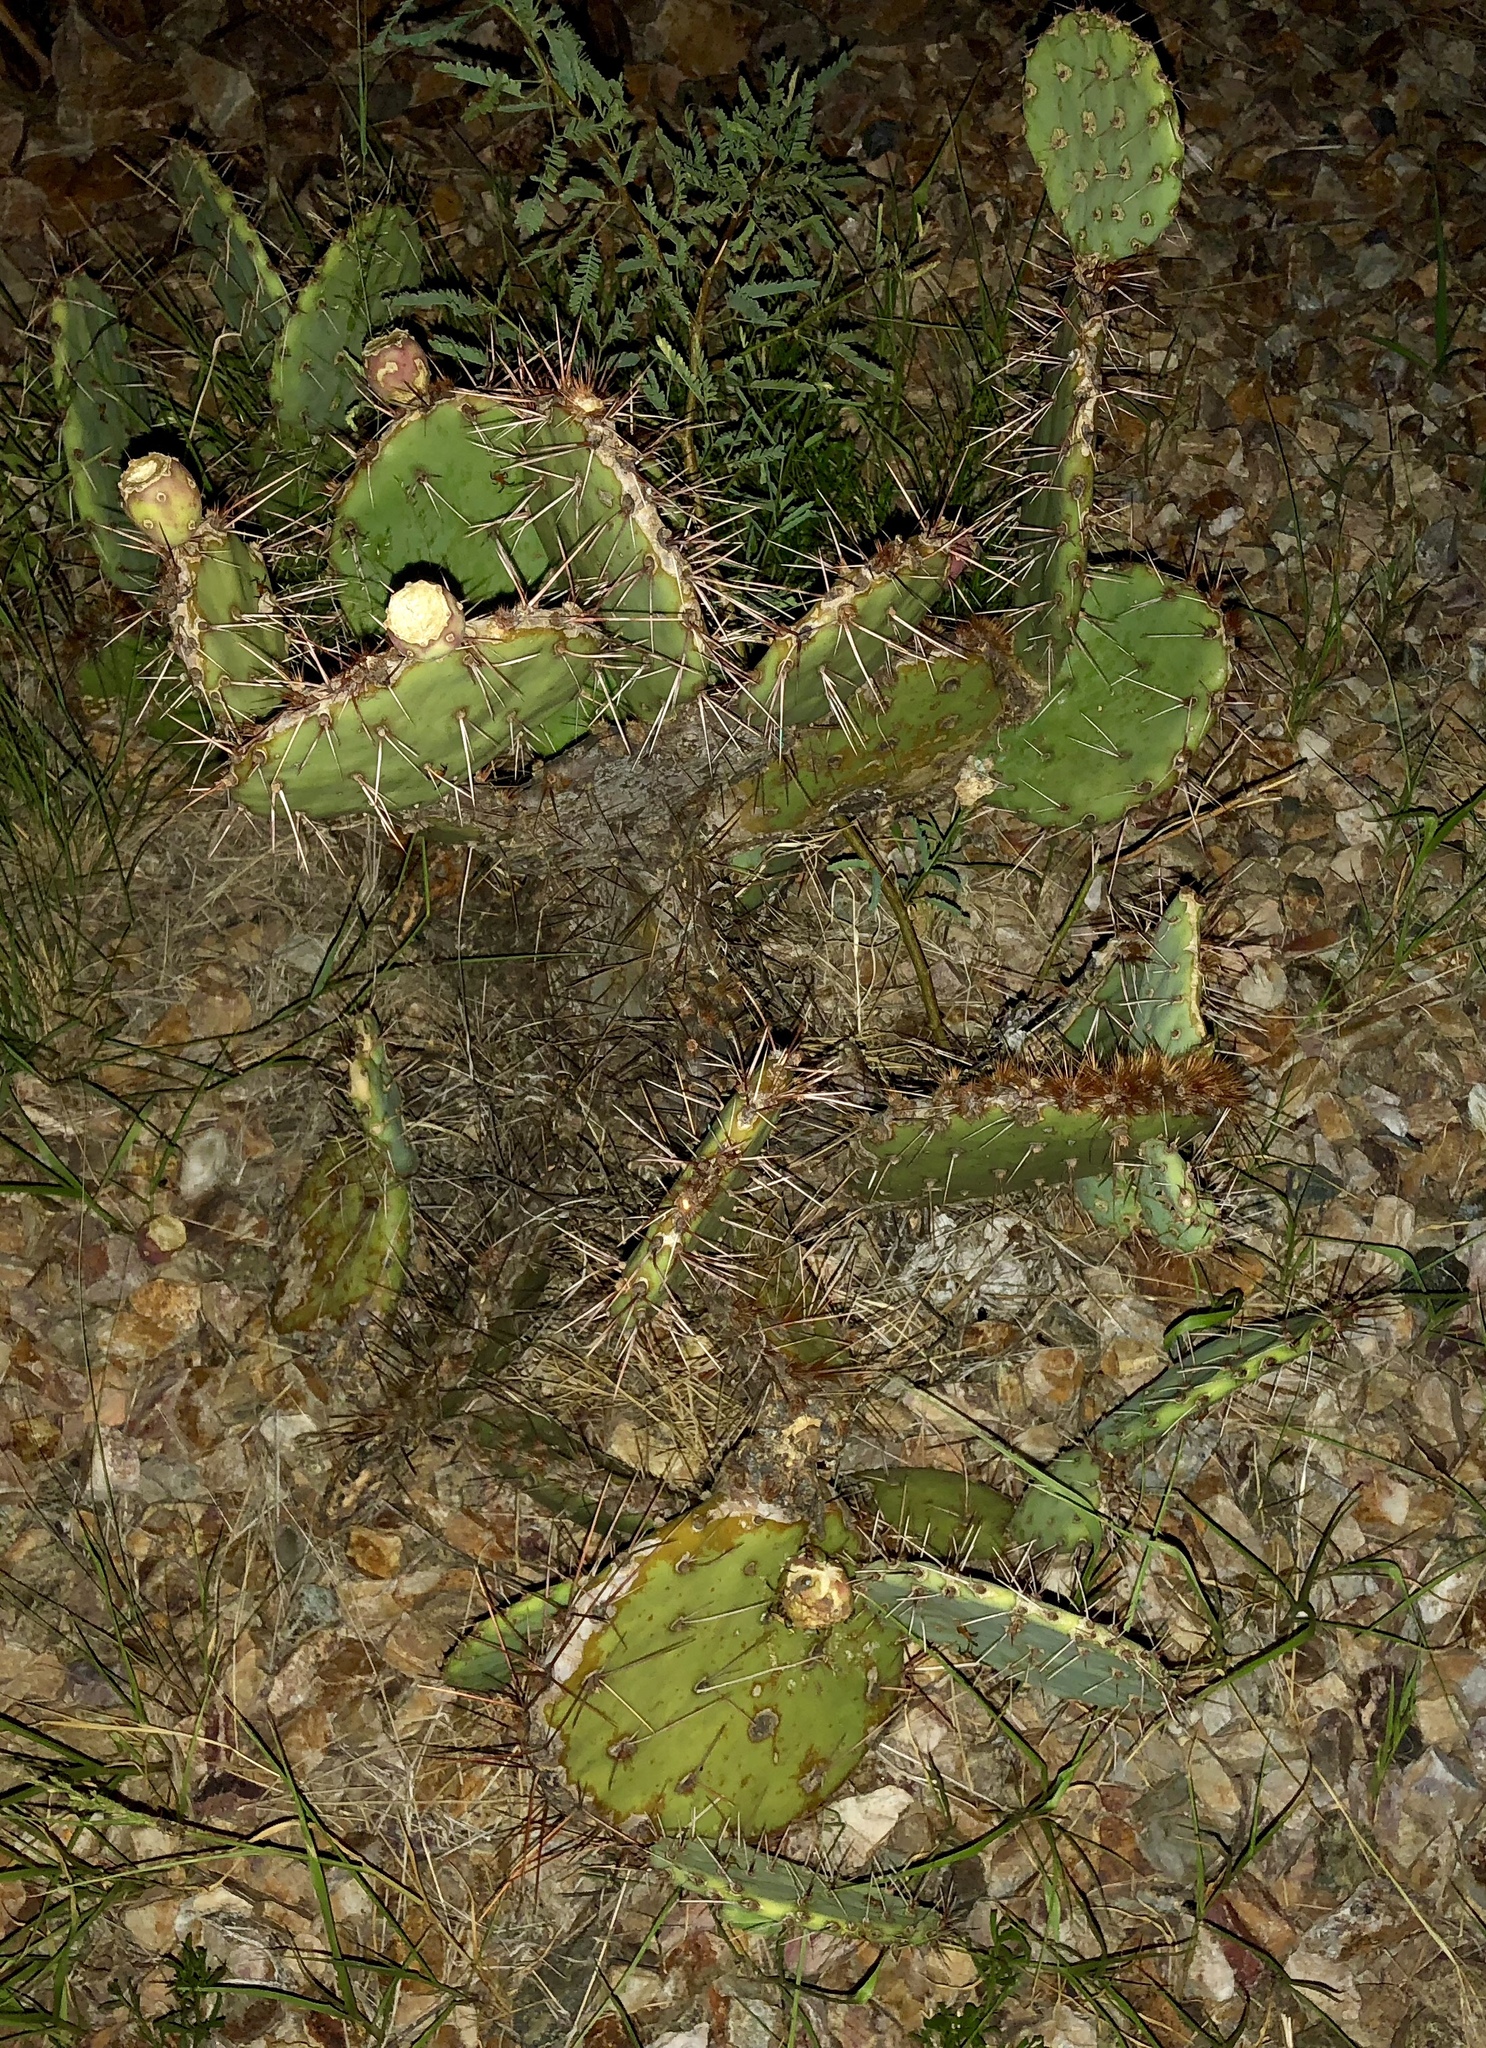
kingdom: Plantae
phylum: Tracheophyta
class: Magnoliopsida
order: Caryophyllales
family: Cactaceae
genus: Opuntia
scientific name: Opuntia engelmannii
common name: Cactus-apple
